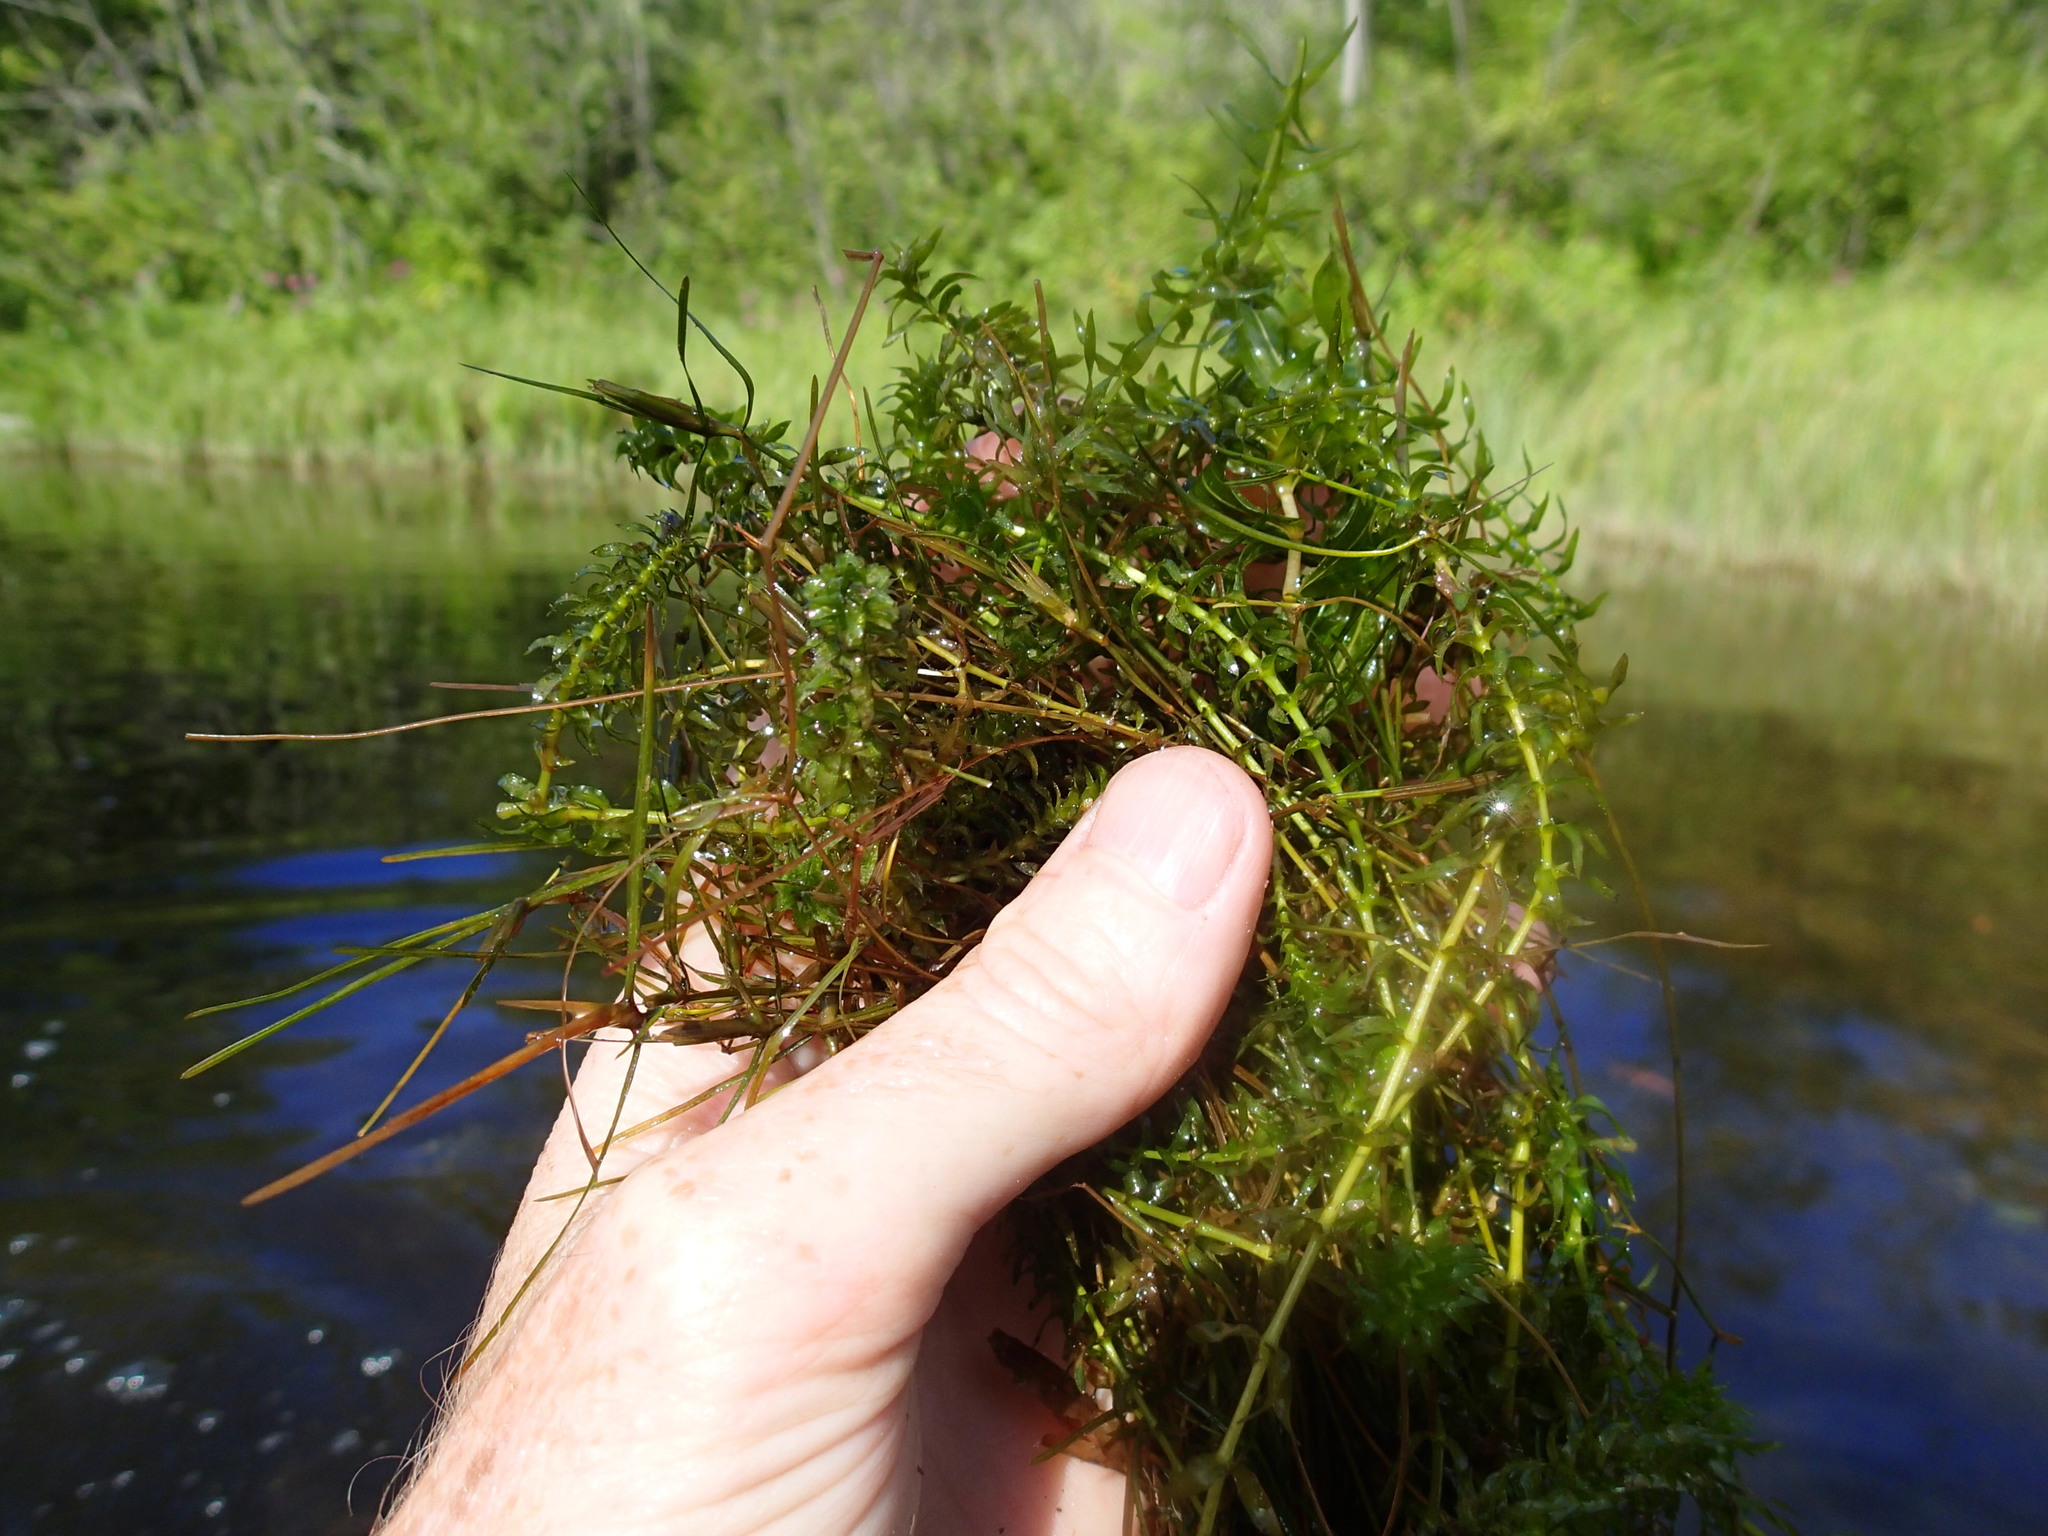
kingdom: Plantae
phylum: Tracheophyta
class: Liliopsida
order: Alismatales
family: Hydrocharitaceae
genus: Elodea
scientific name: Elodea canadensis
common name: Canadian waterweed
